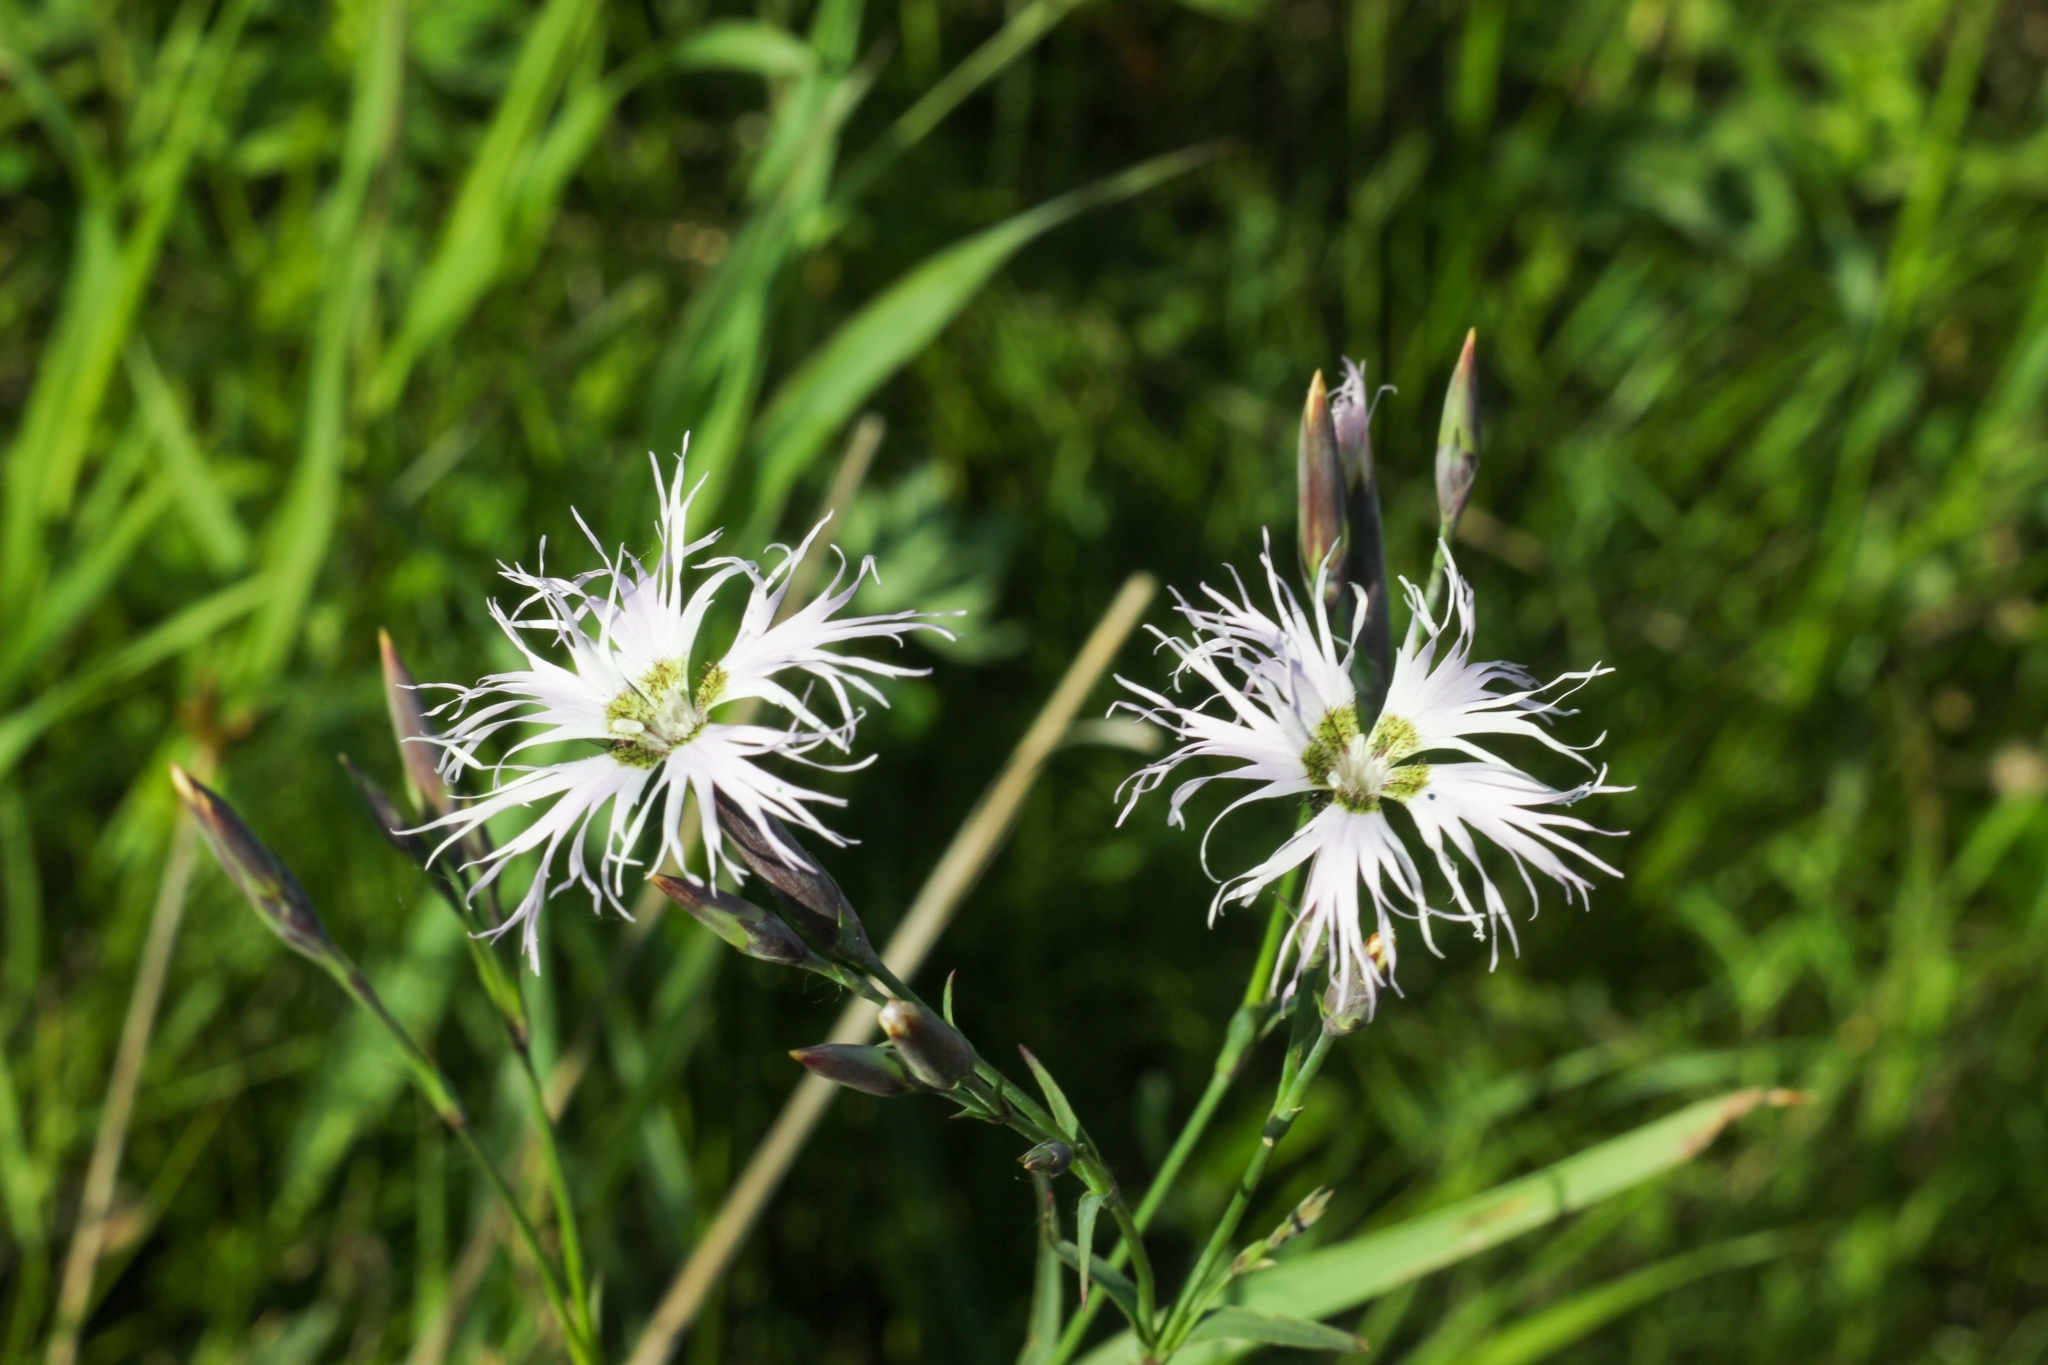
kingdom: Plantae
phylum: Tracheophyta
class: Magnoliopsida
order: Caryophyllales
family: Caryophyllaceae
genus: Dianthus
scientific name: Dianthus superbus
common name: Fringed pink
